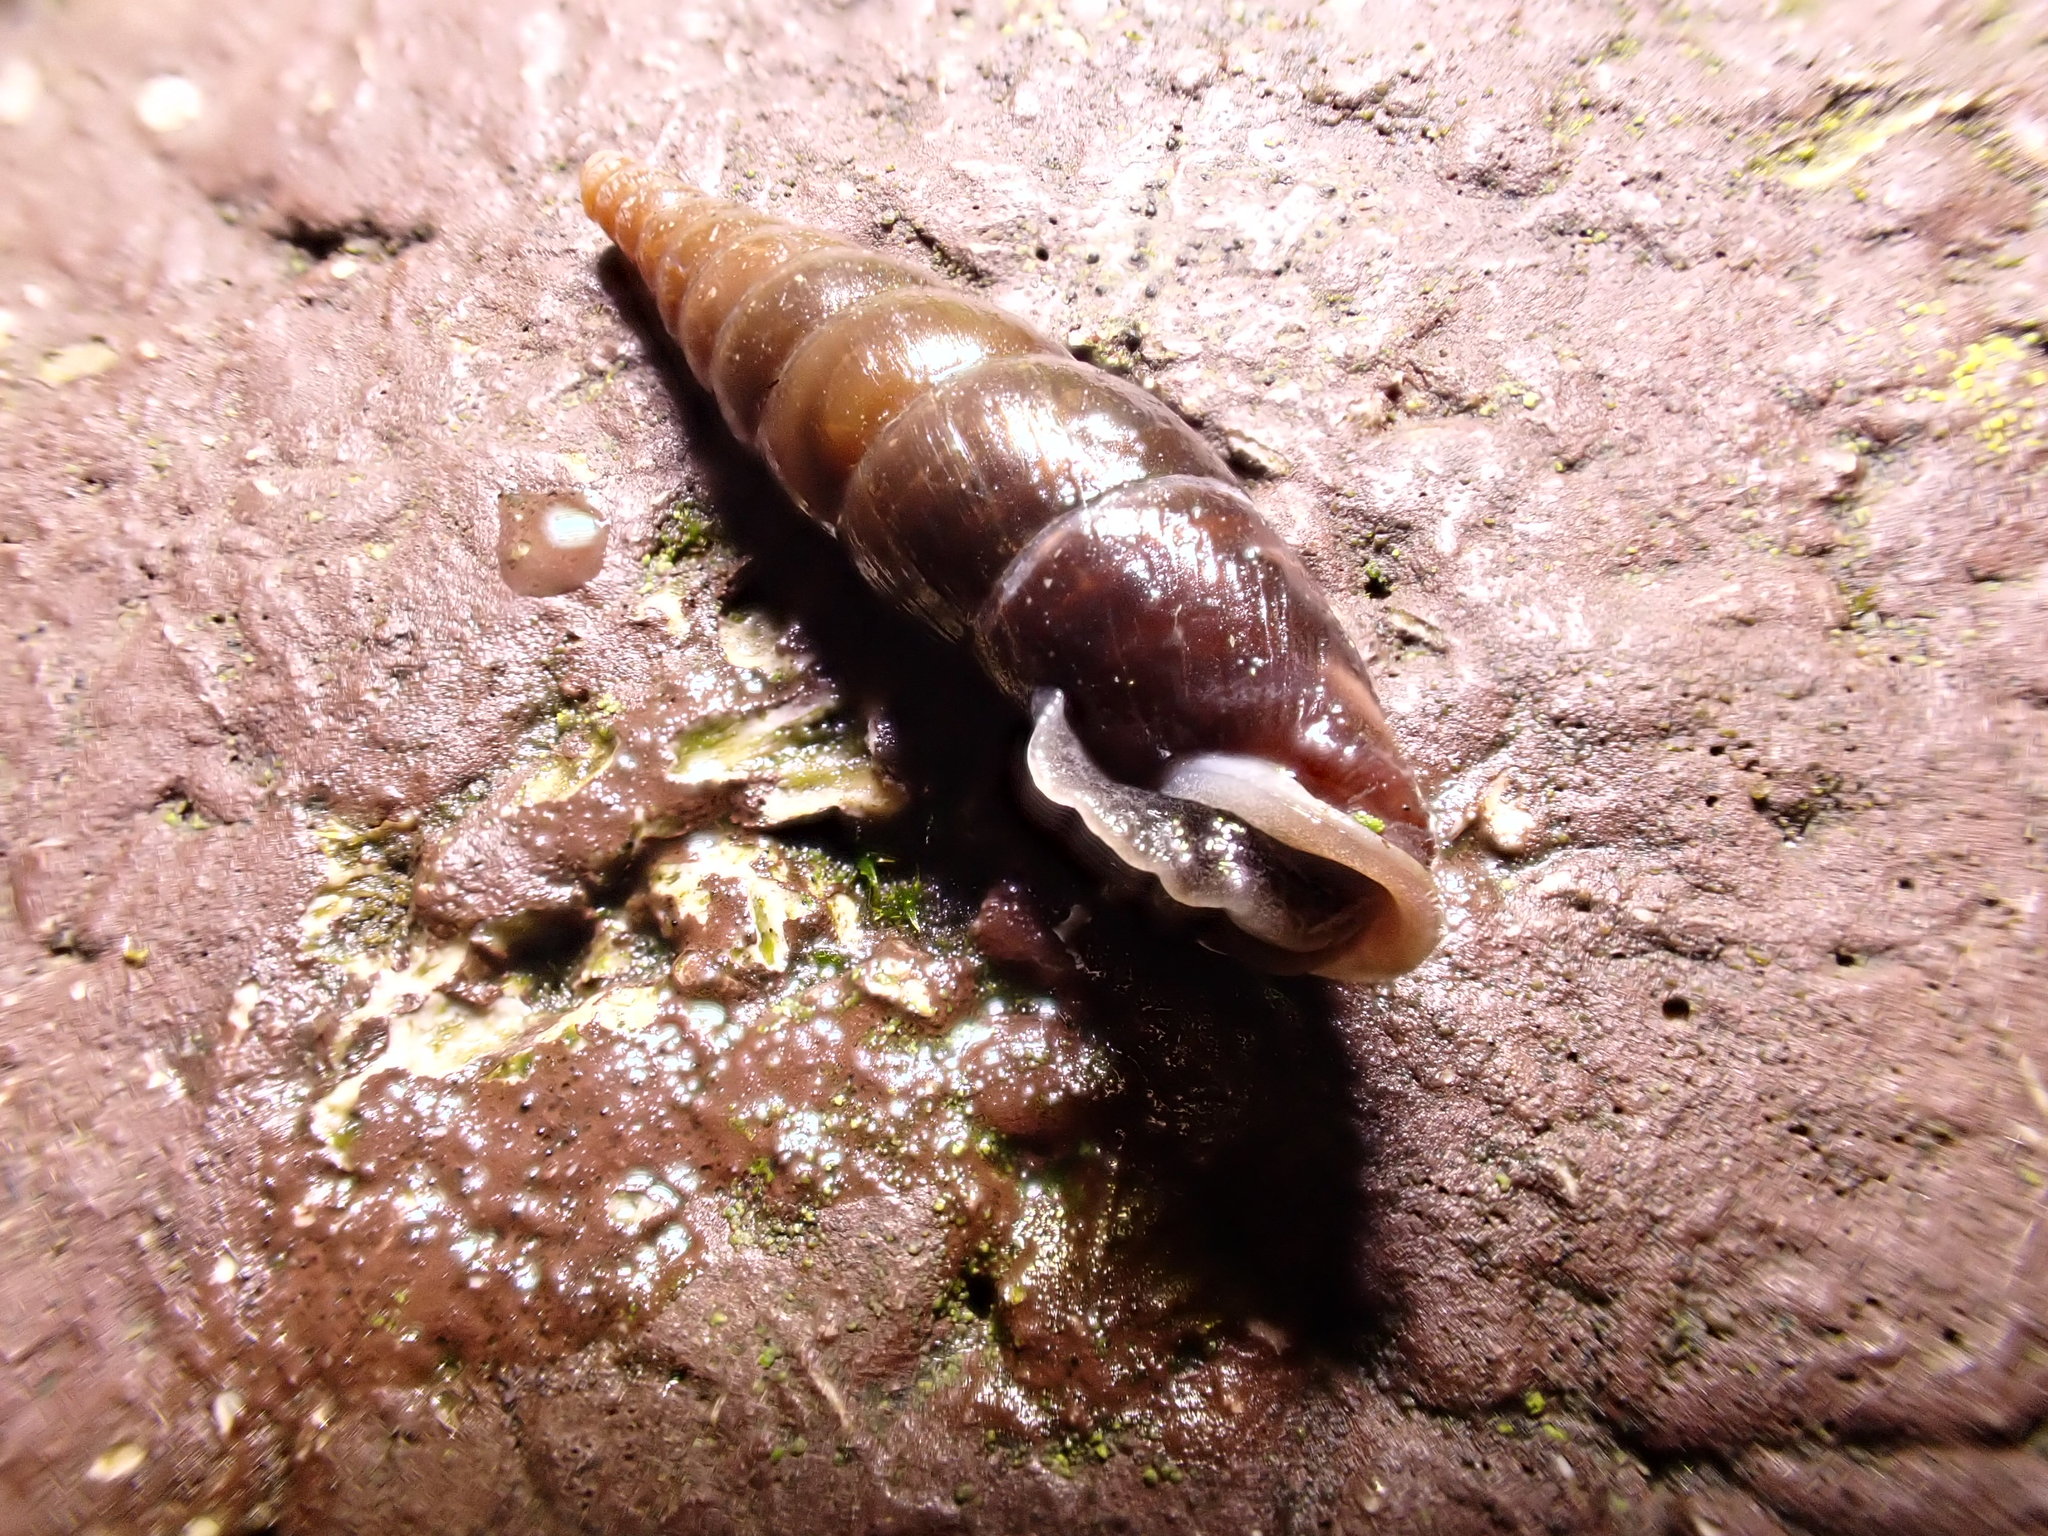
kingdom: Animalia
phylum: Mollusca
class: Gastropoda
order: Stylommatophora
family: Clausiliidae
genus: Cochlodina
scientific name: Cochlodina laminata
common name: Plaited door snail
